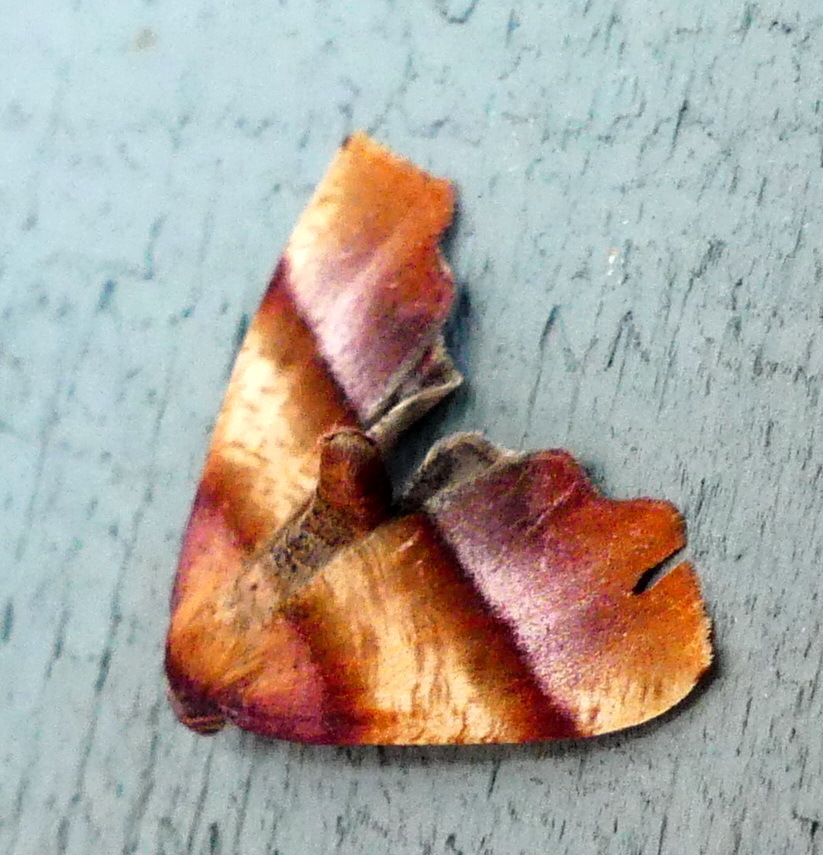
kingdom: Animalia
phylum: Arthropoda
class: Insecta
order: Lepidoptera
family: Geometridae
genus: Plagodis
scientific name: Plagodis phlogosaria
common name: Straight-lined plagodis
